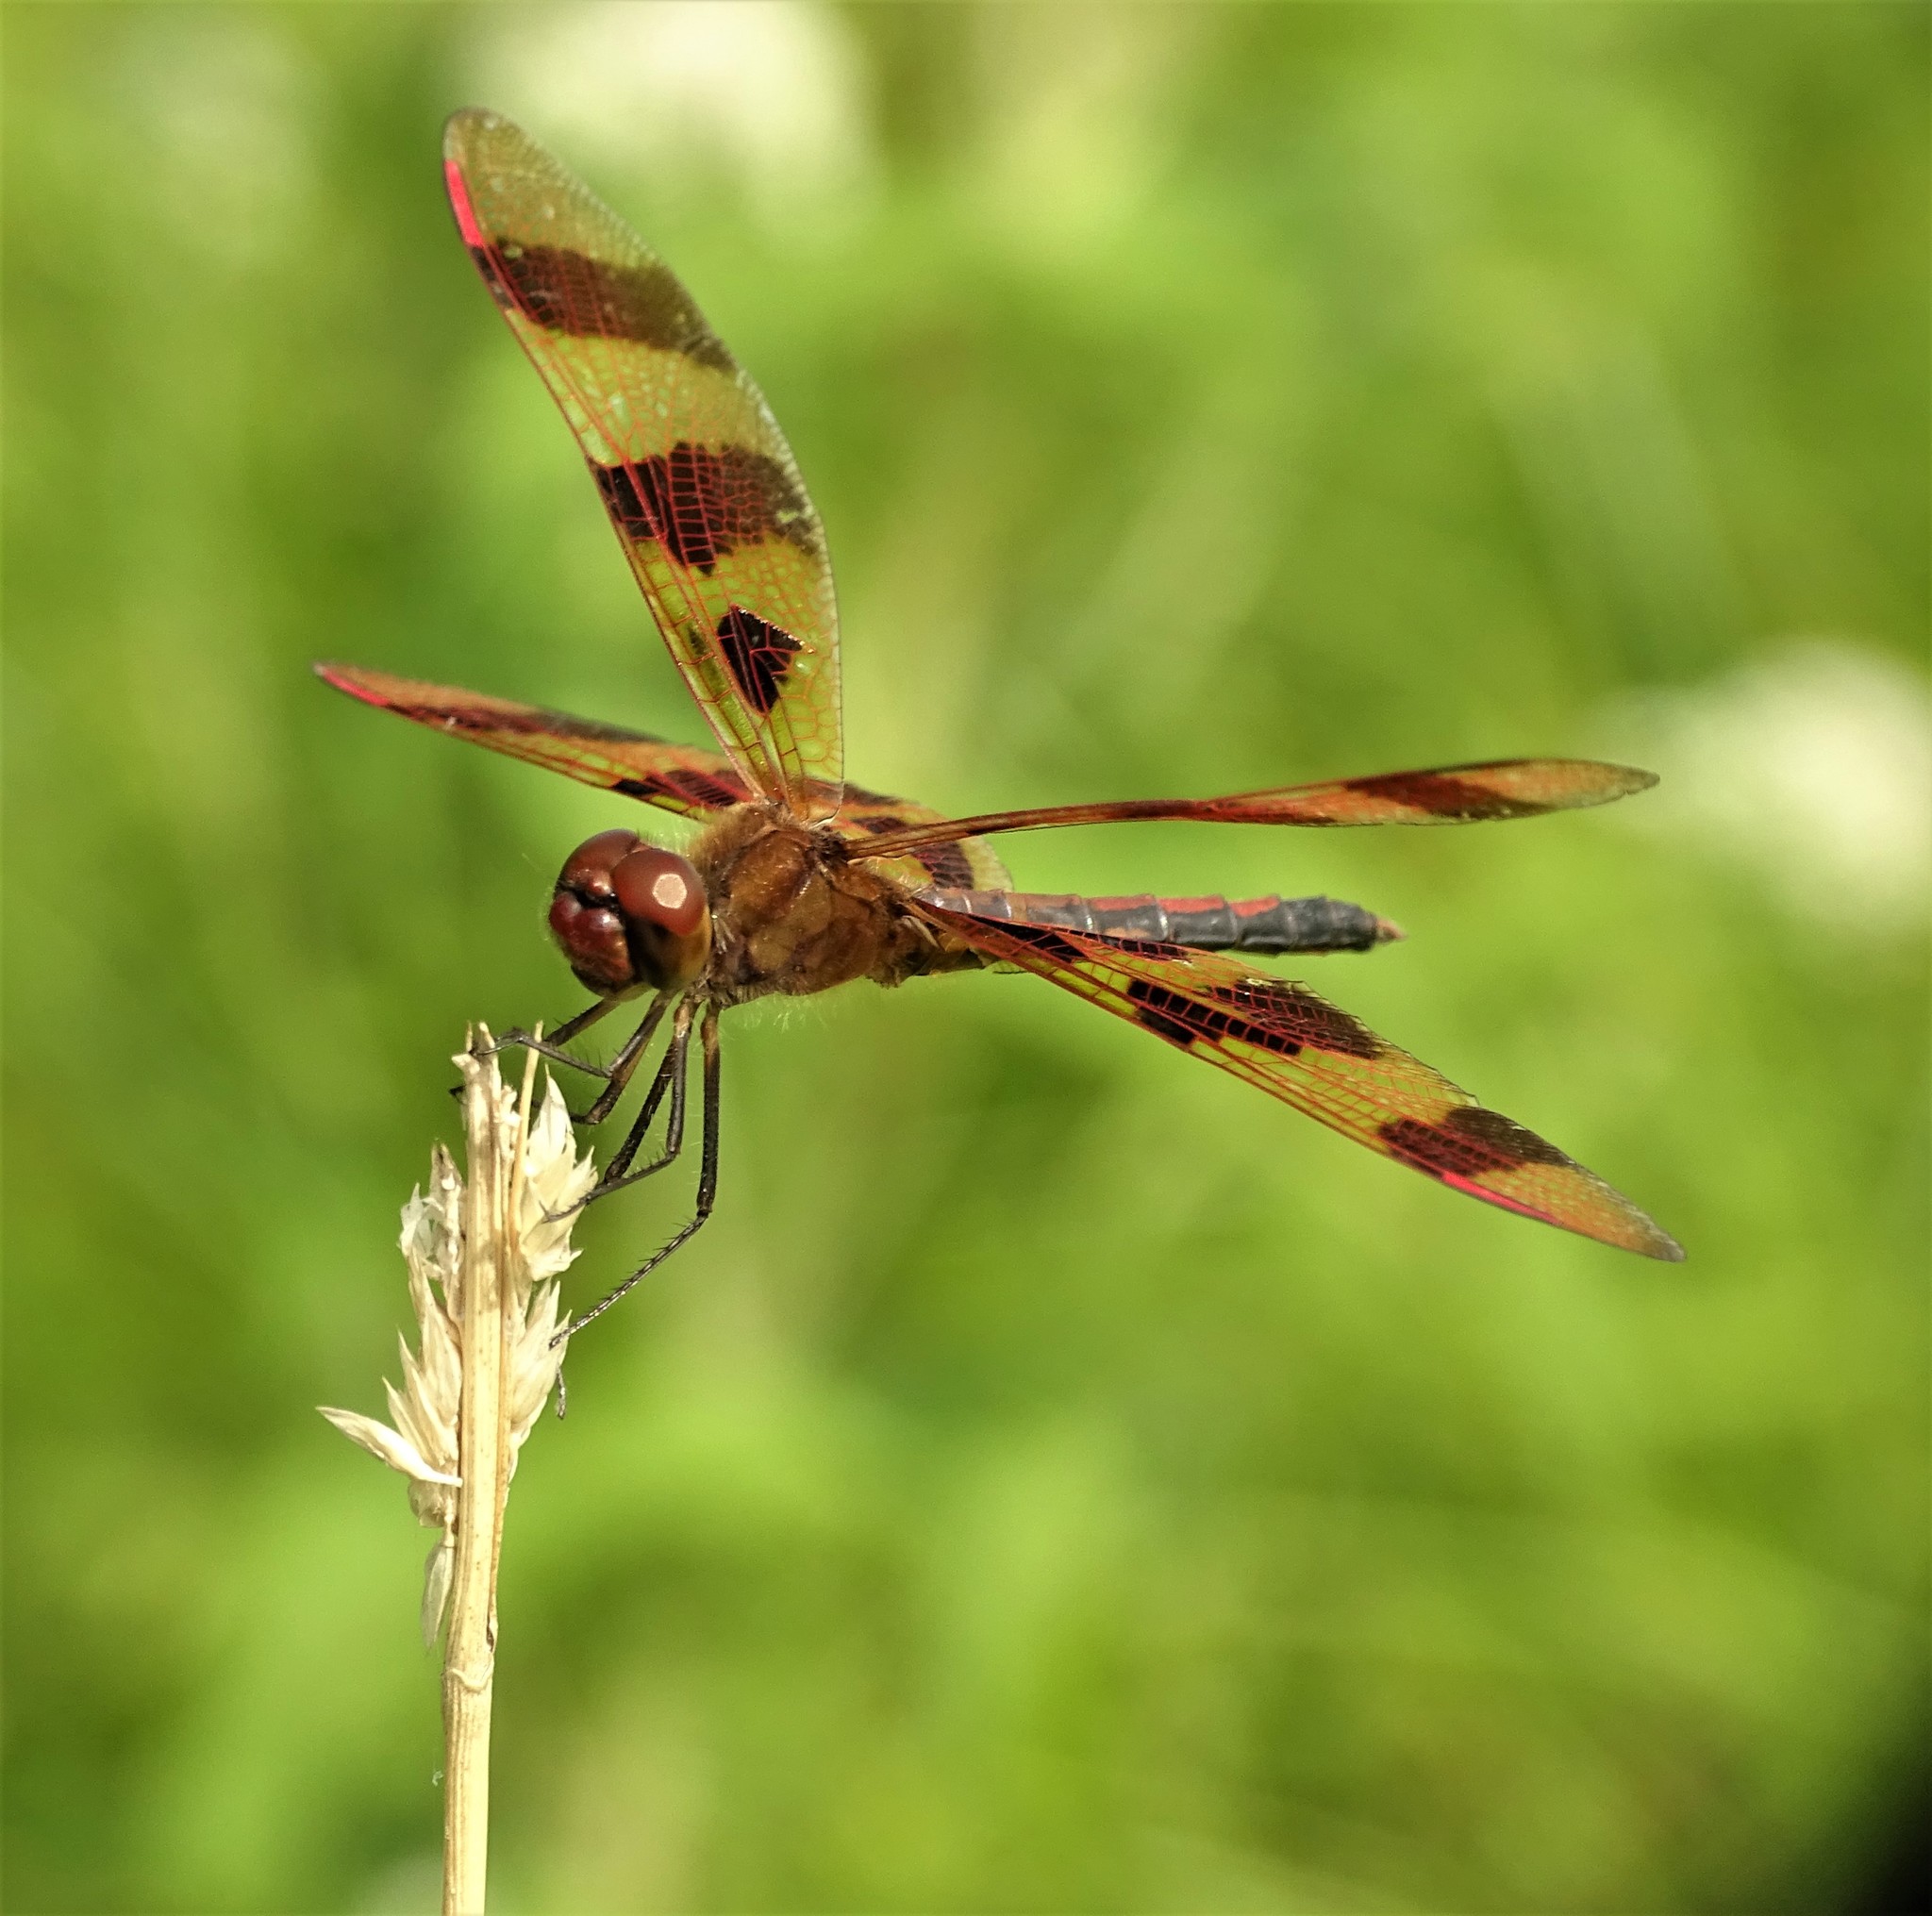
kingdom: Animalia
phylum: Arthropoda
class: Insecta
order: Odonata
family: Libellulidae
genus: Celithemis
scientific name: Celithemis eponina
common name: Halloween pennant
